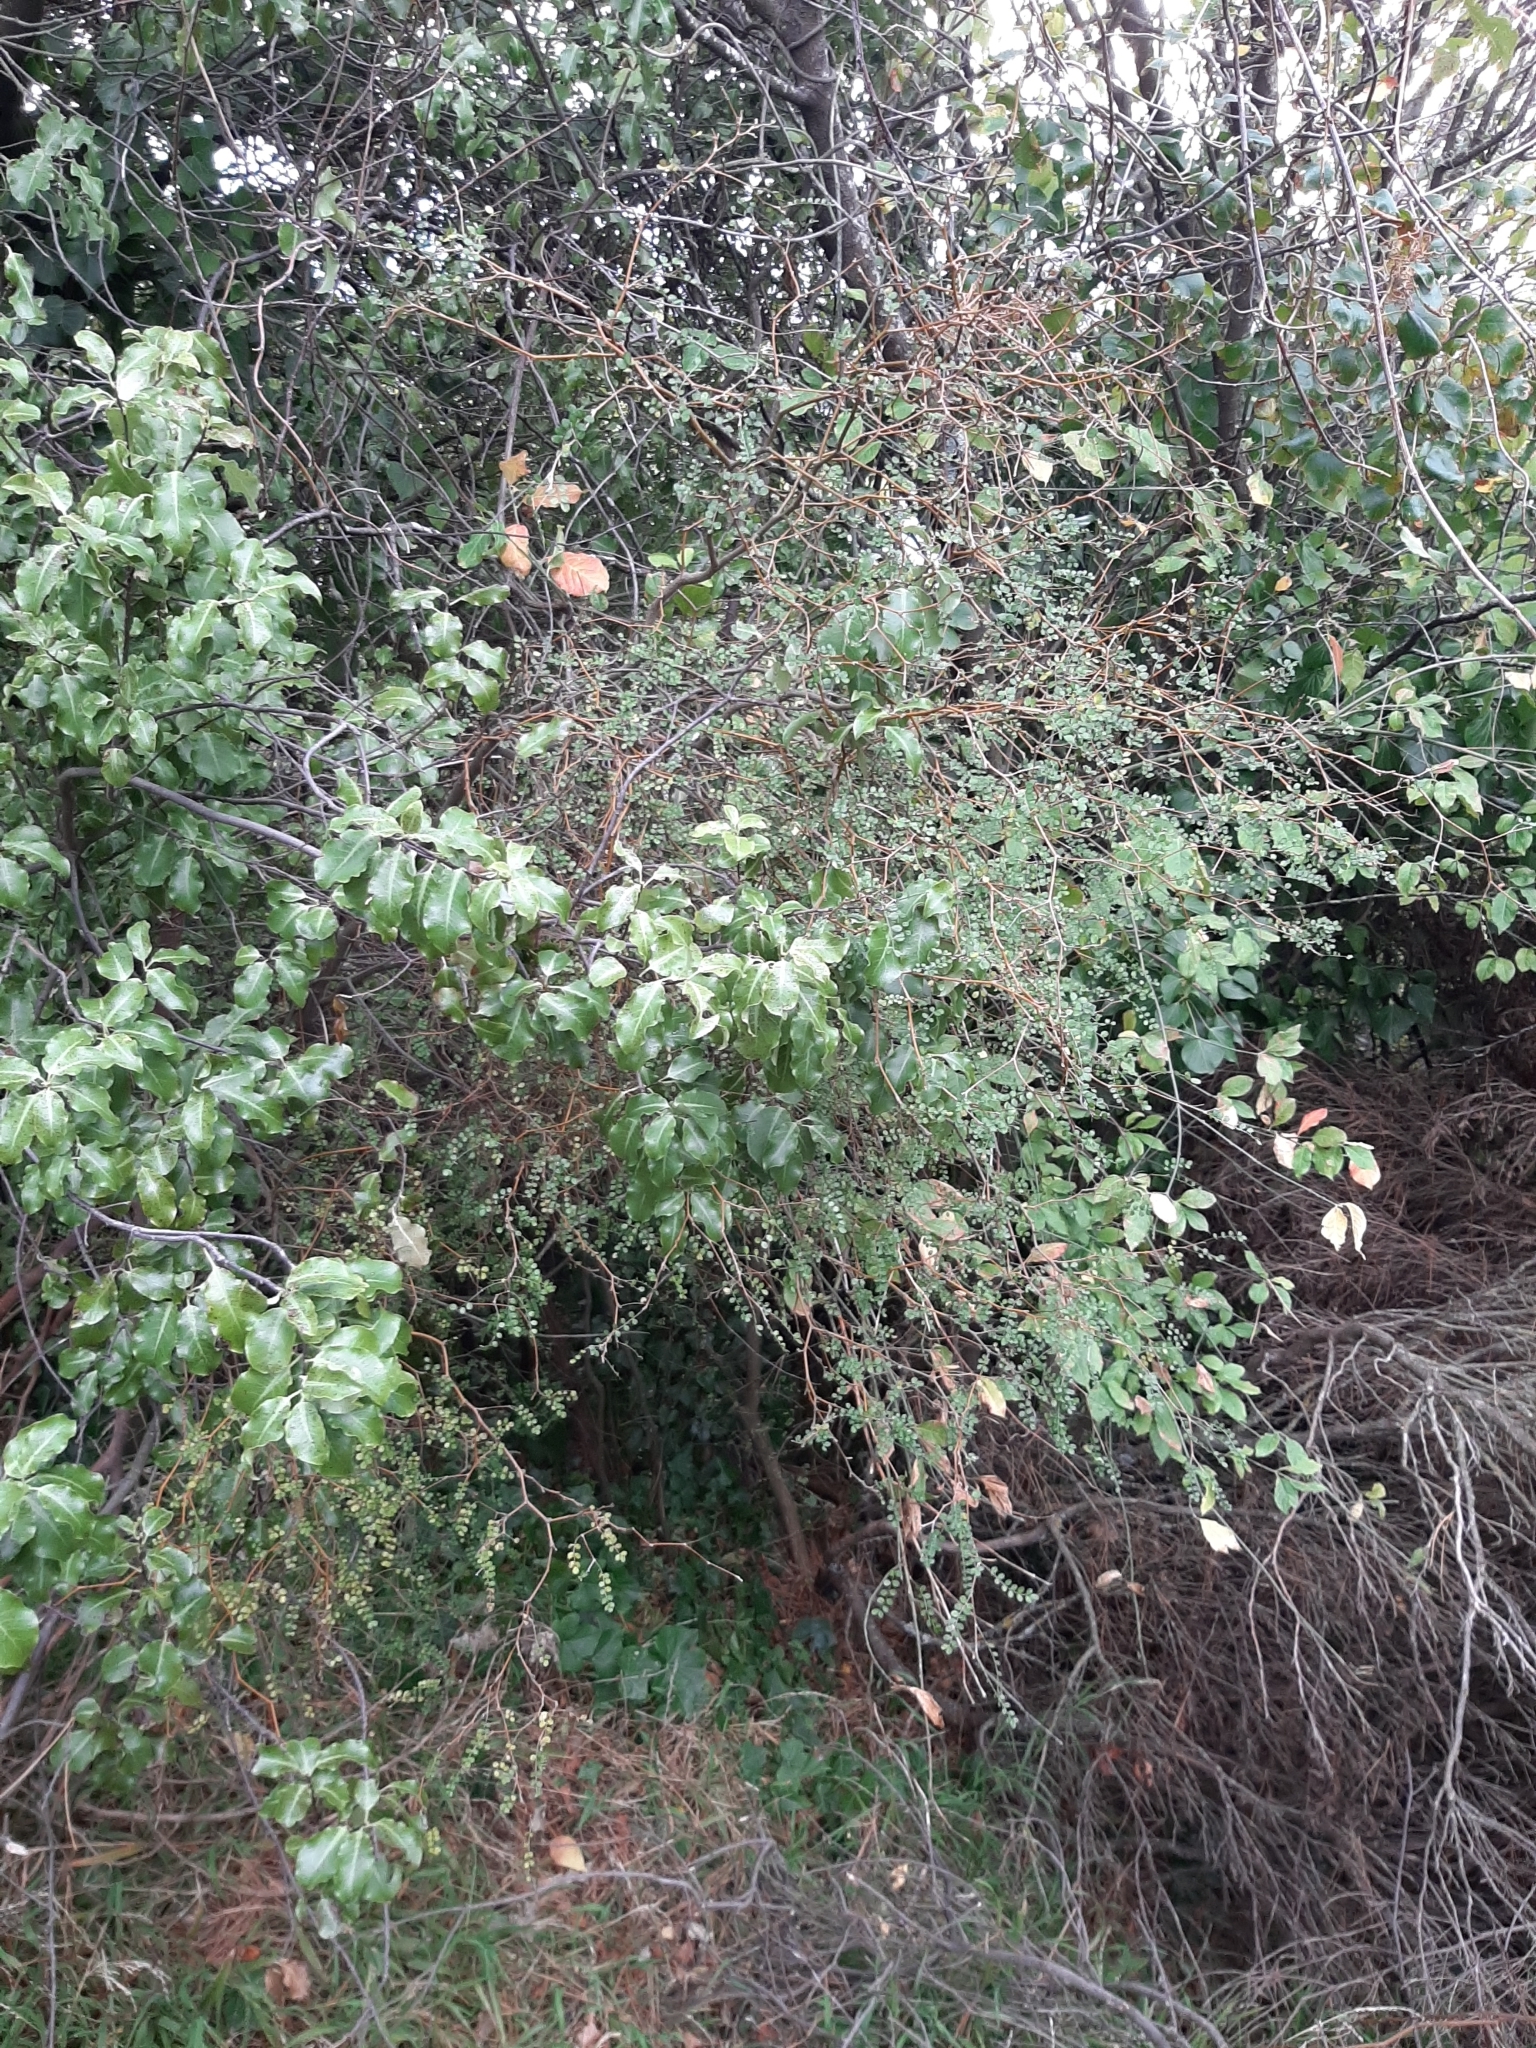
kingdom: Plantae
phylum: Tracheophyta
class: Magnoliopsida
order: Fabales
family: Fabaceae
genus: Sophora
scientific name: Sophora microphylla
